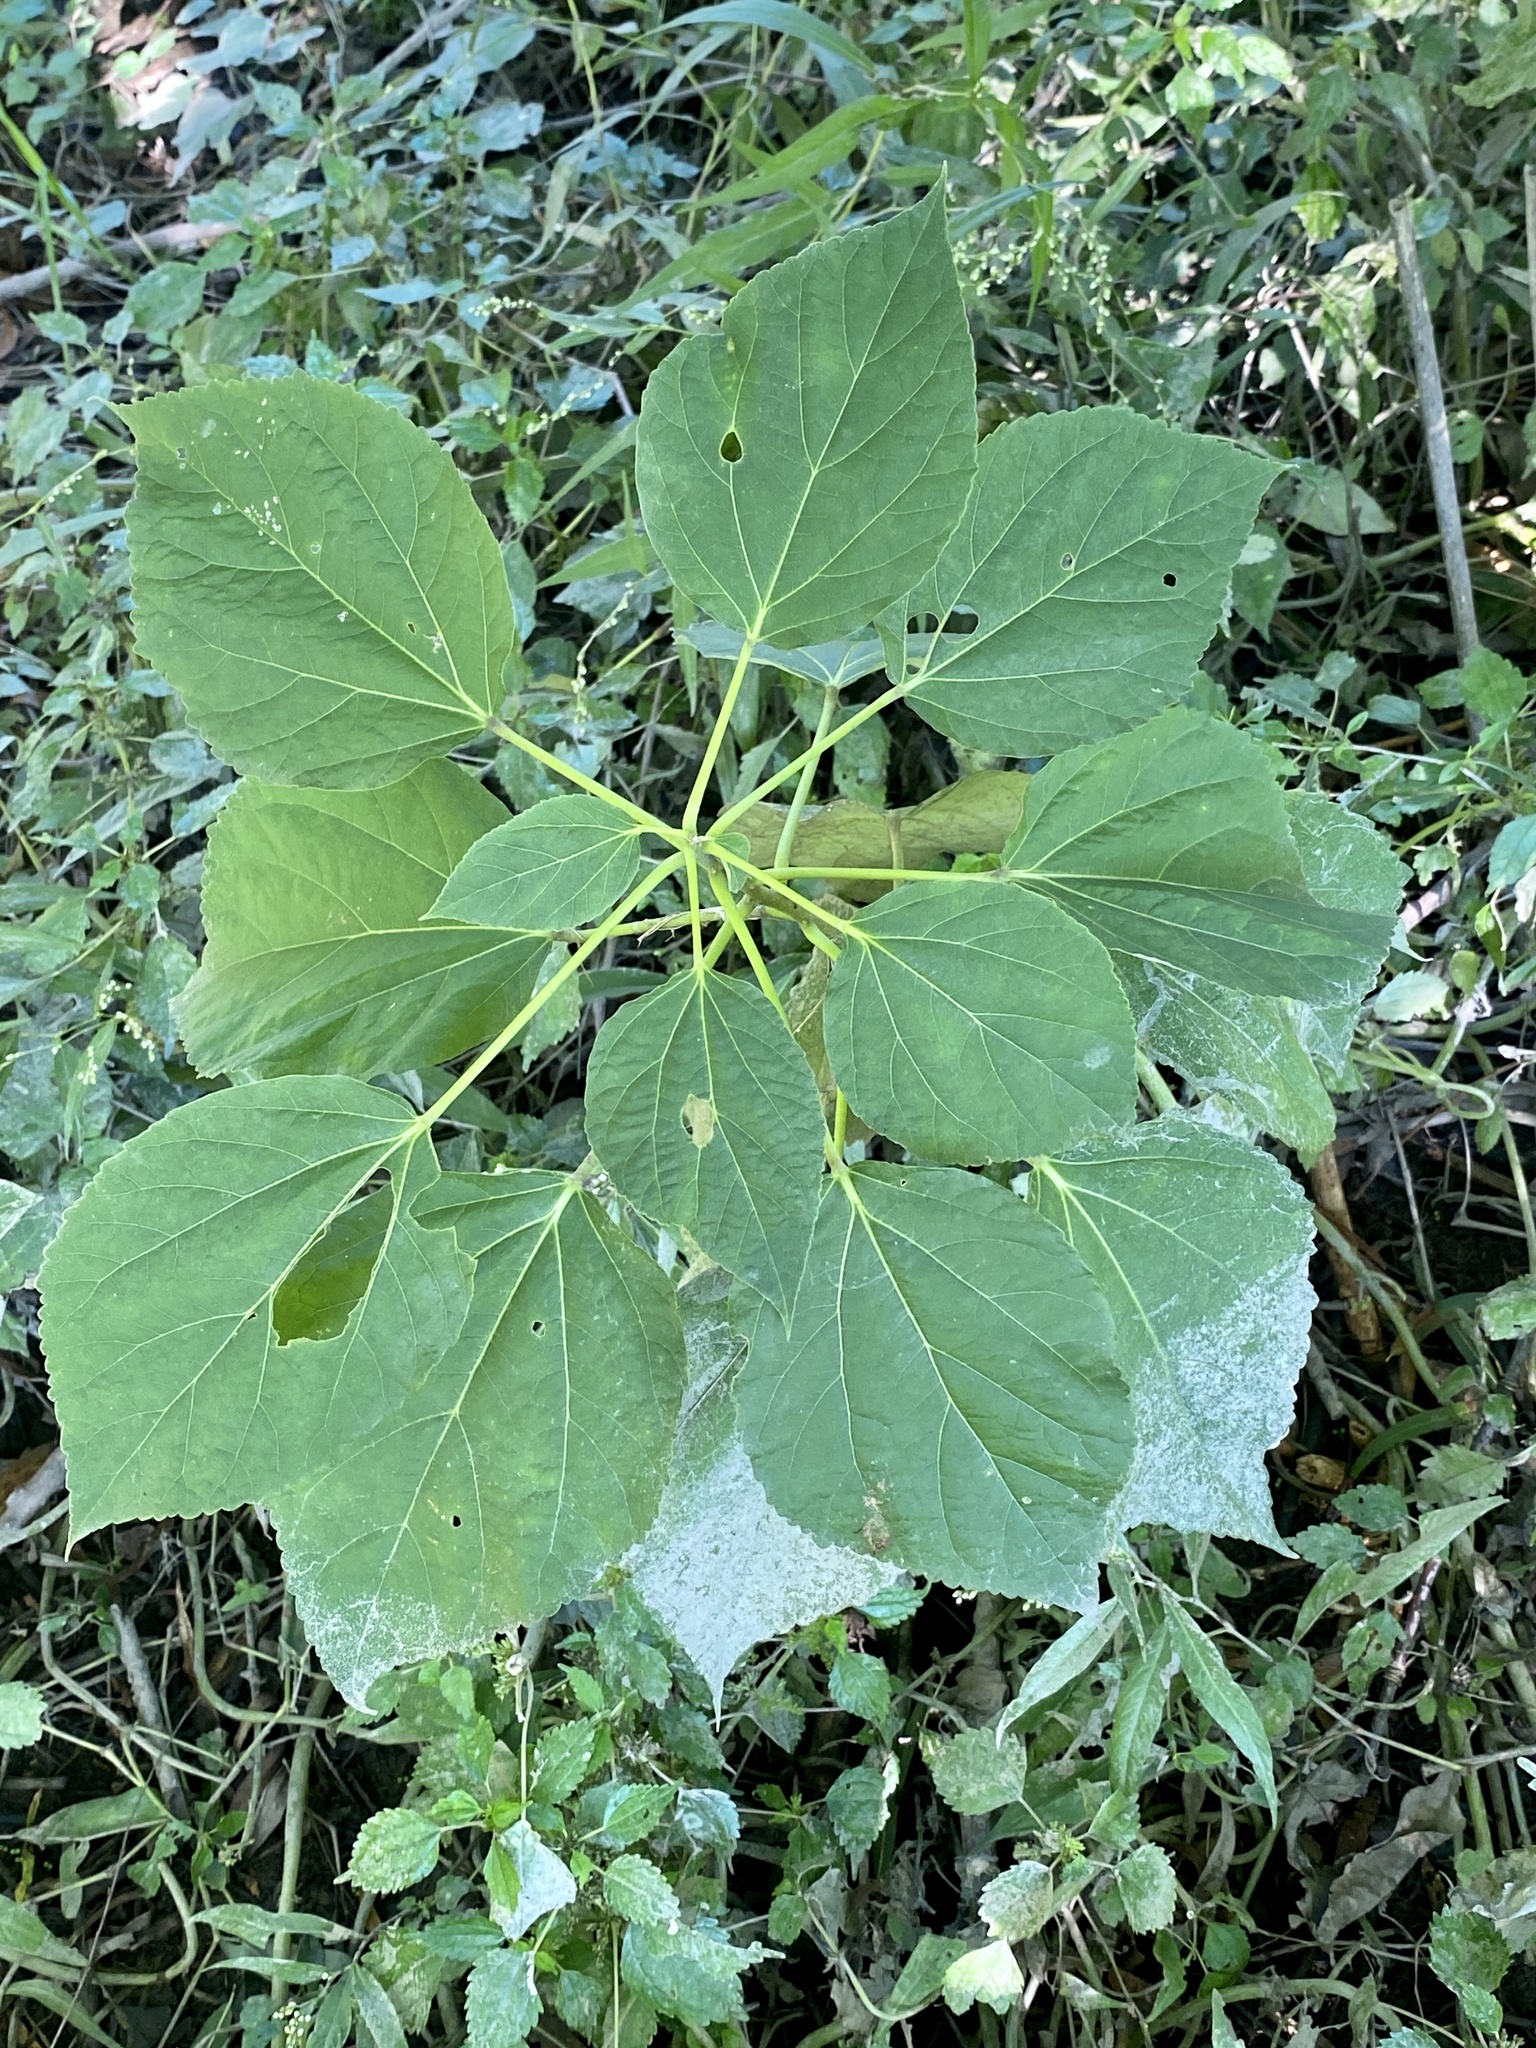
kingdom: Plantae
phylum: Tracheophyta
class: Magnoliopsida
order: Malvales
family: Malvaceae
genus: Hibiscus
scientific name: Hibiscus moscheutos
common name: Common rose-mallow
